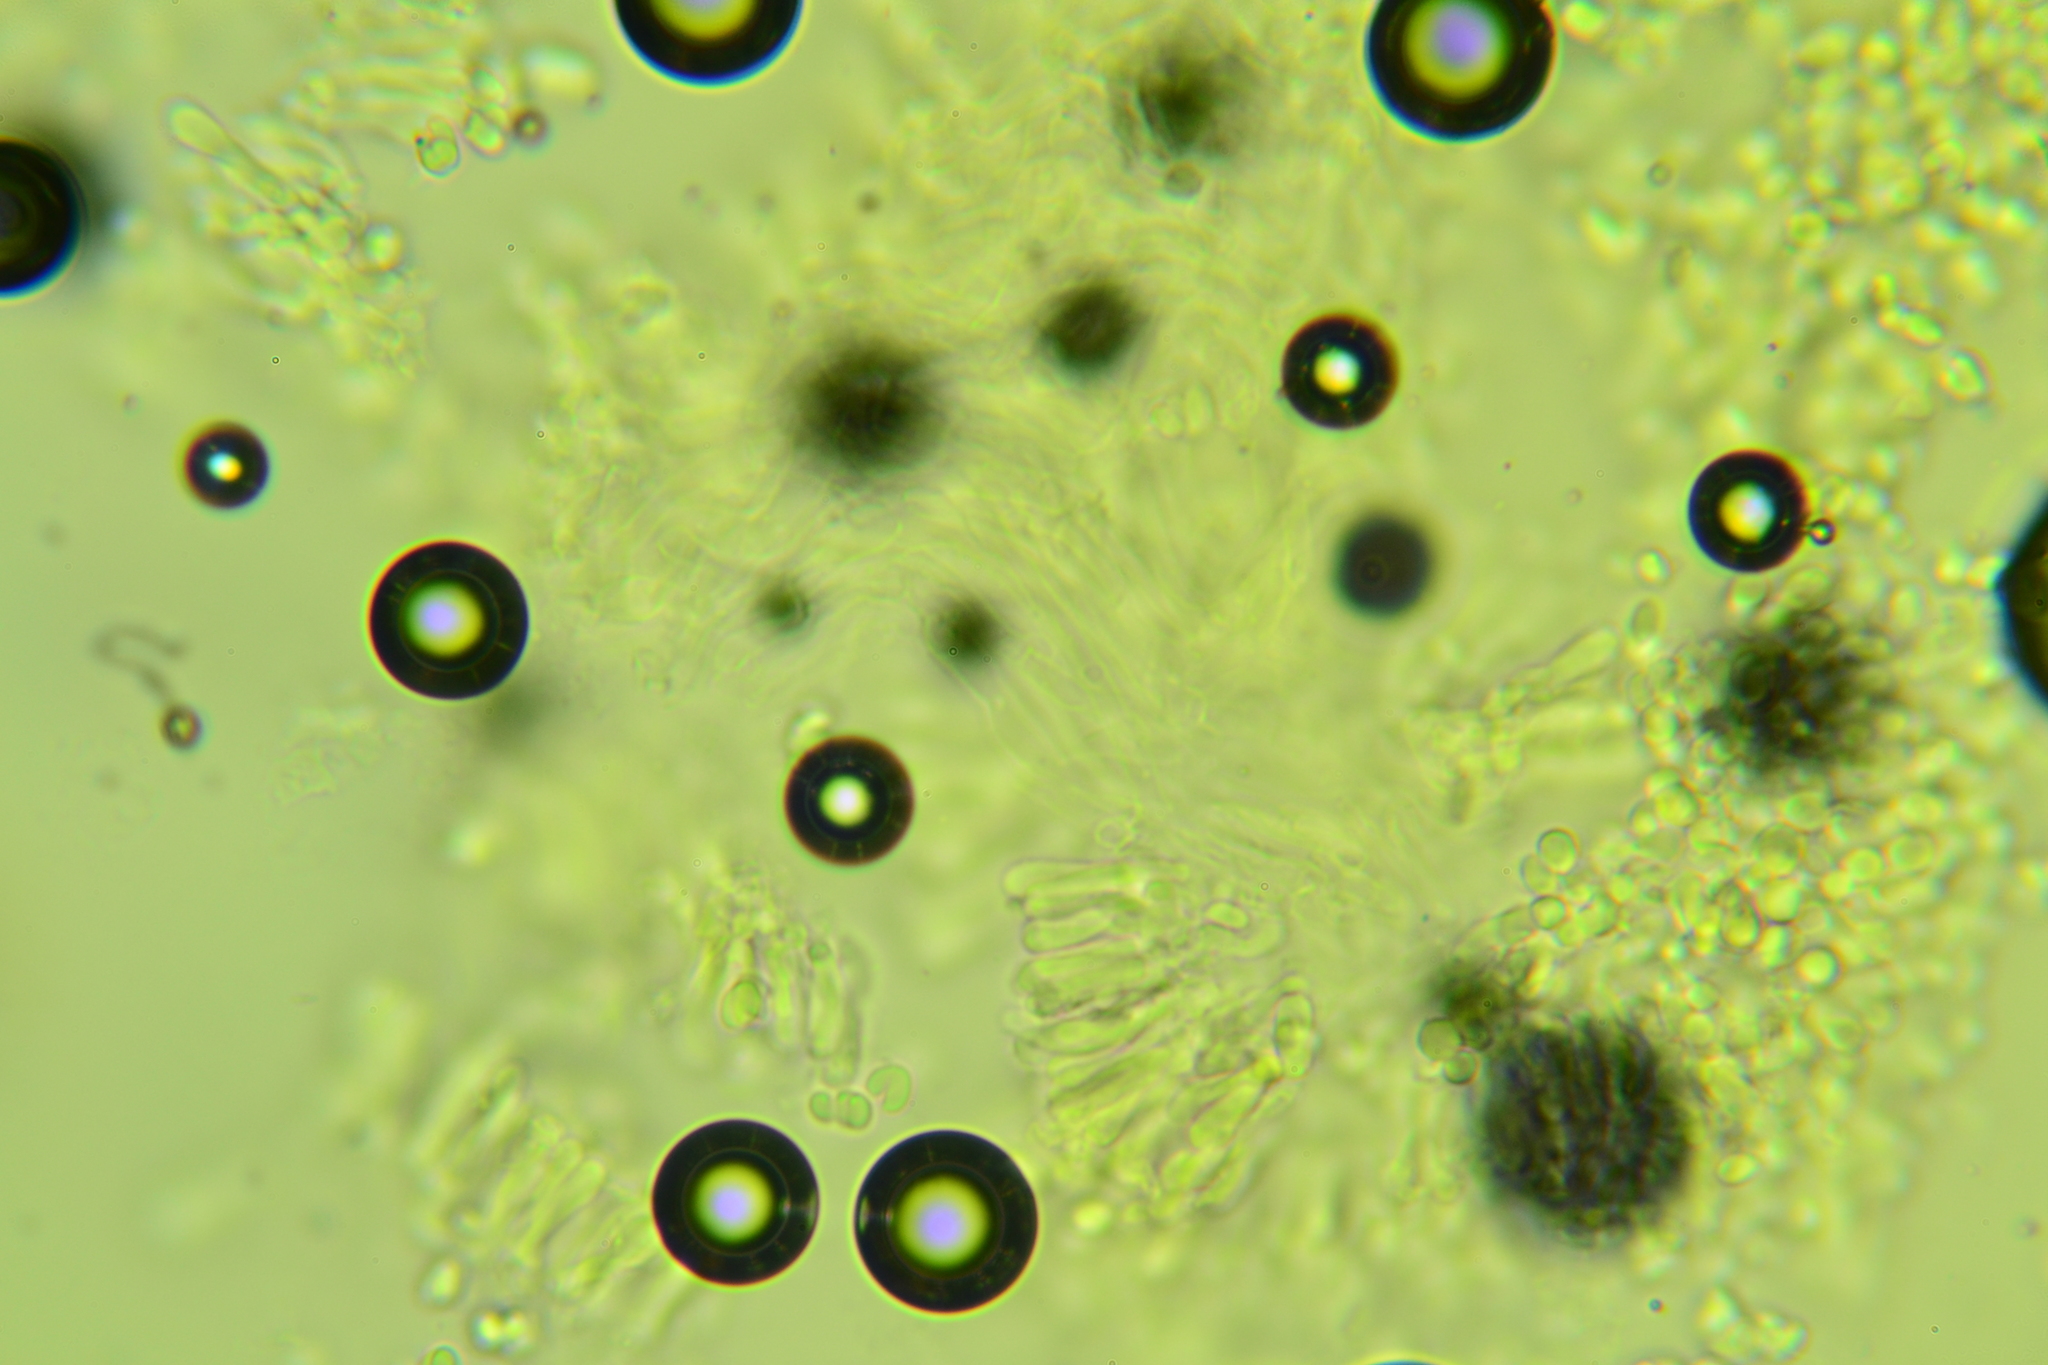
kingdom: Fungi
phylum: Basidiomycota
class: Agaricomycetes
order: Agaricales
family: Tricholomataceae
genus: Clitocybe
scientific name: Clitocybe coacta
